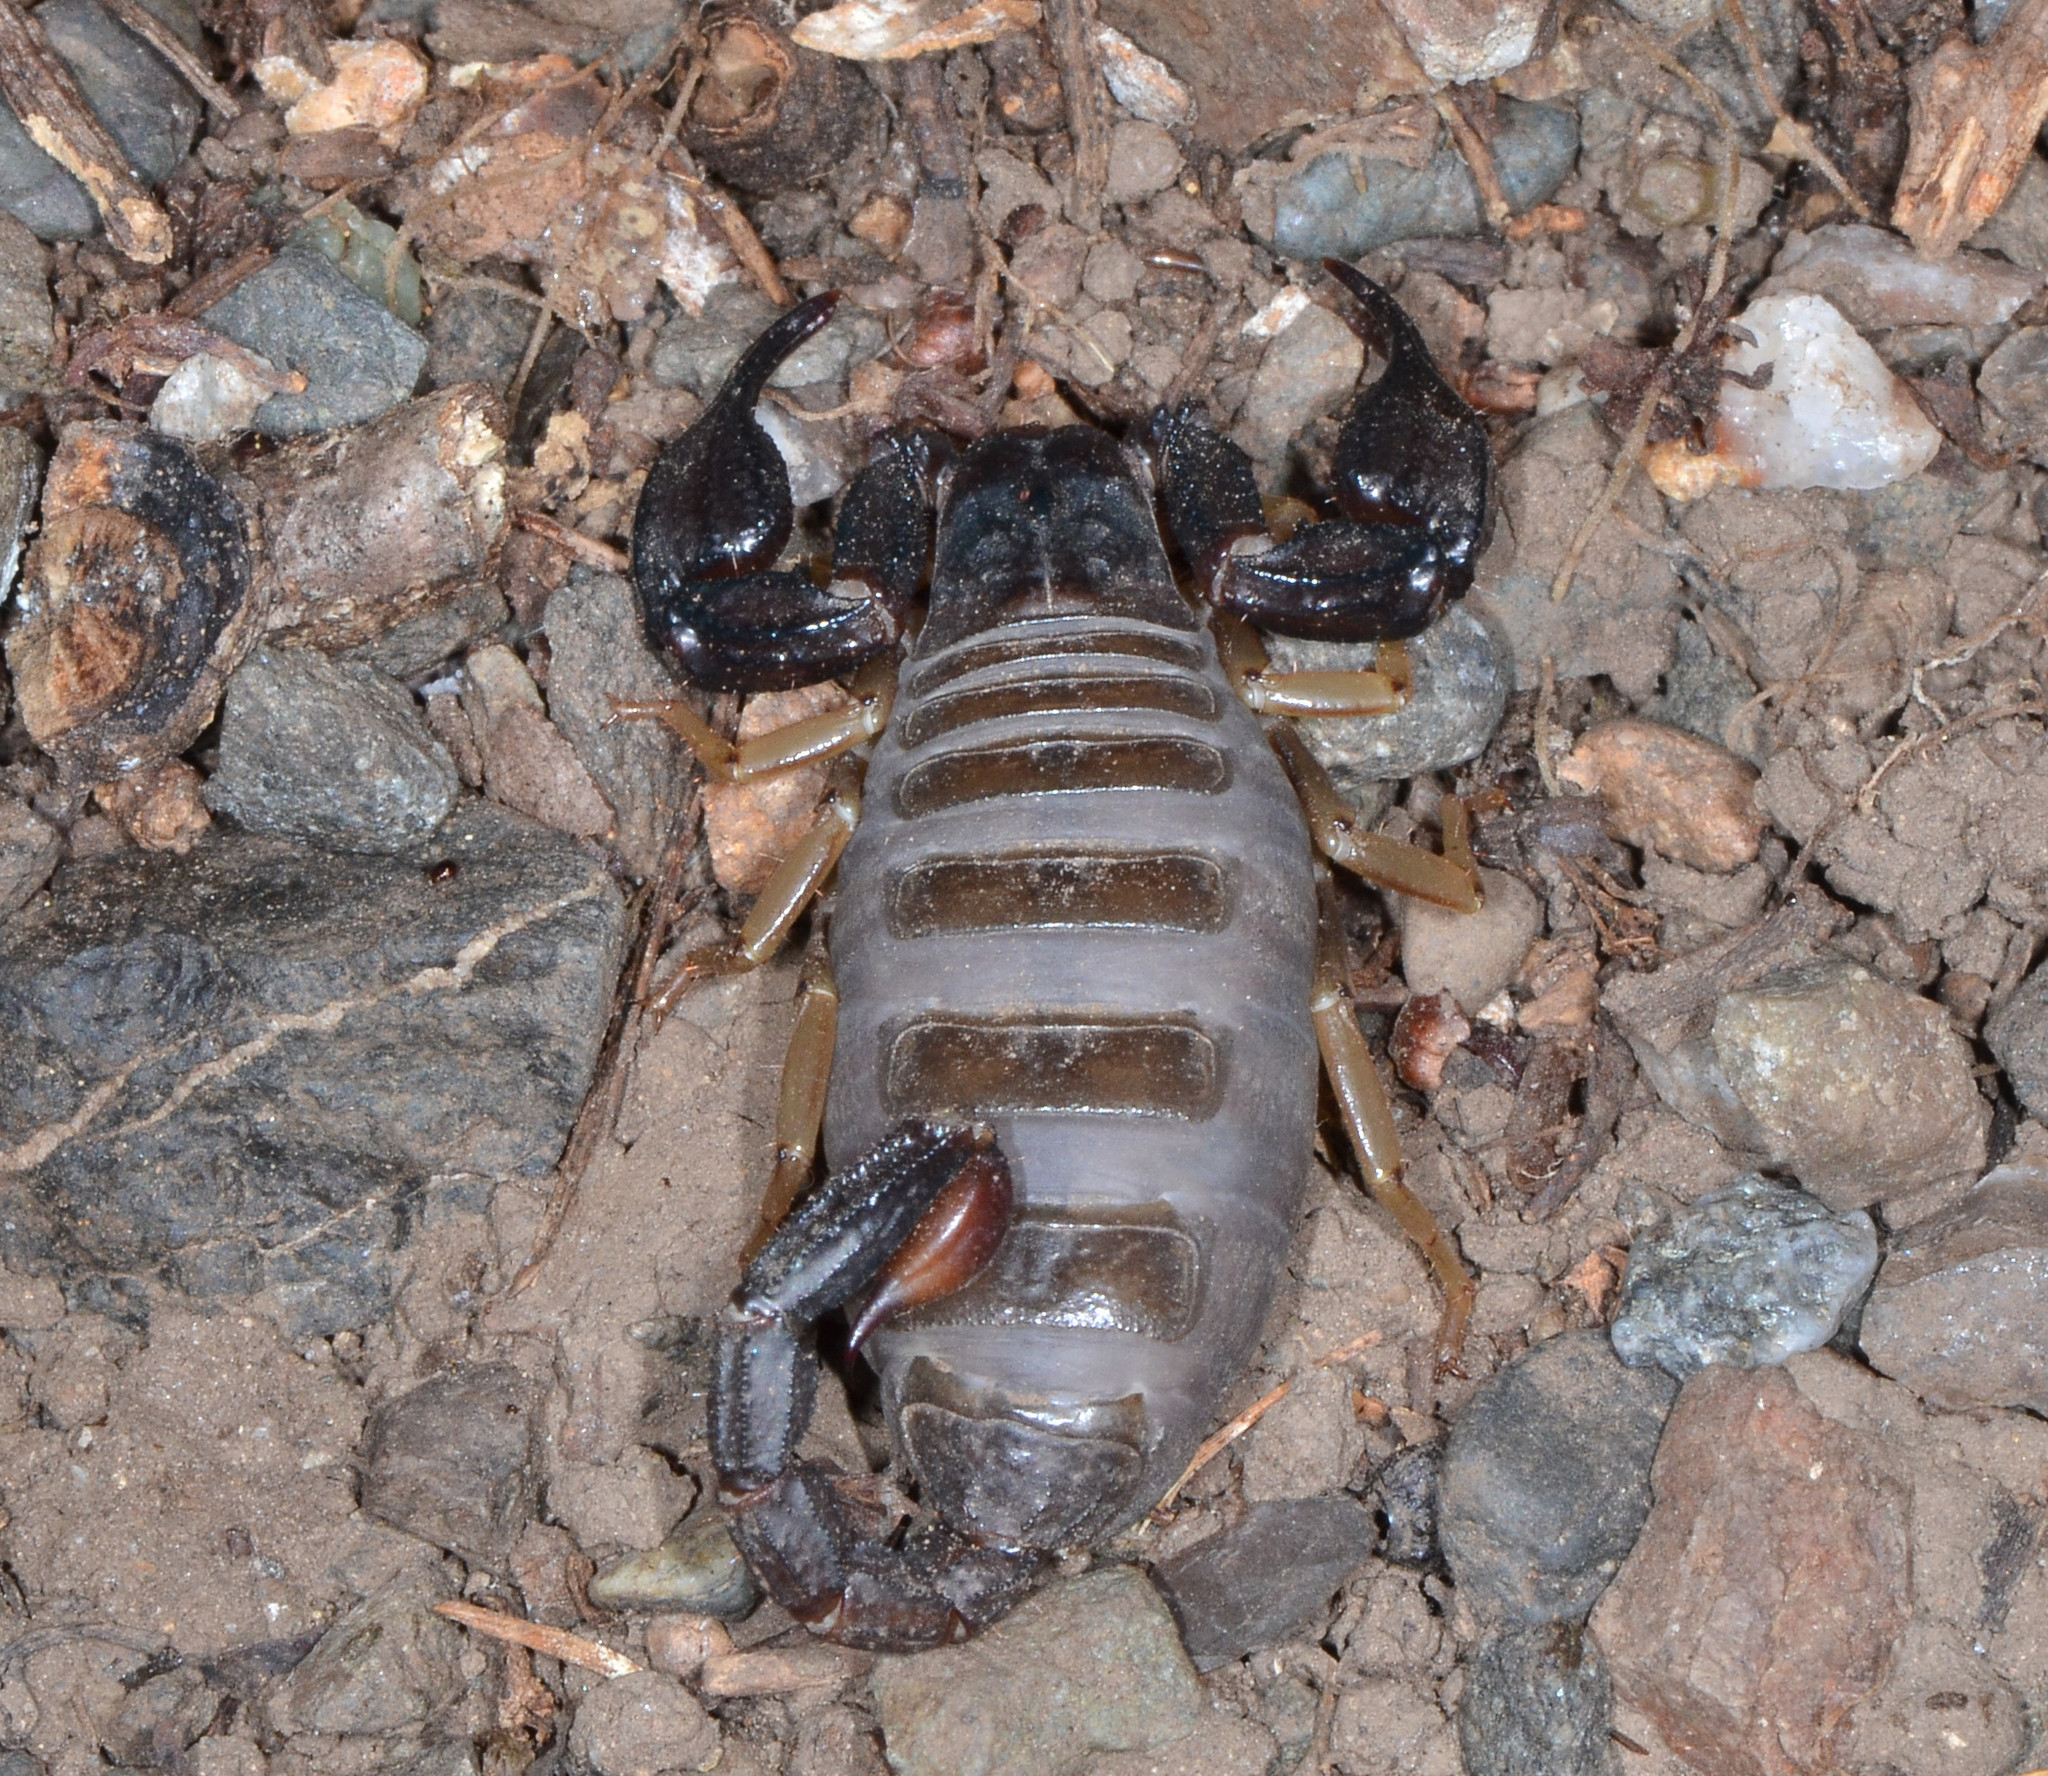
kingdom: Animalia
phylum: Arthropoda
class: Arachnida
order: Scorpiones
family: Chactidae
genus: Uroctonus
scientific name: Uroctonus mordax
